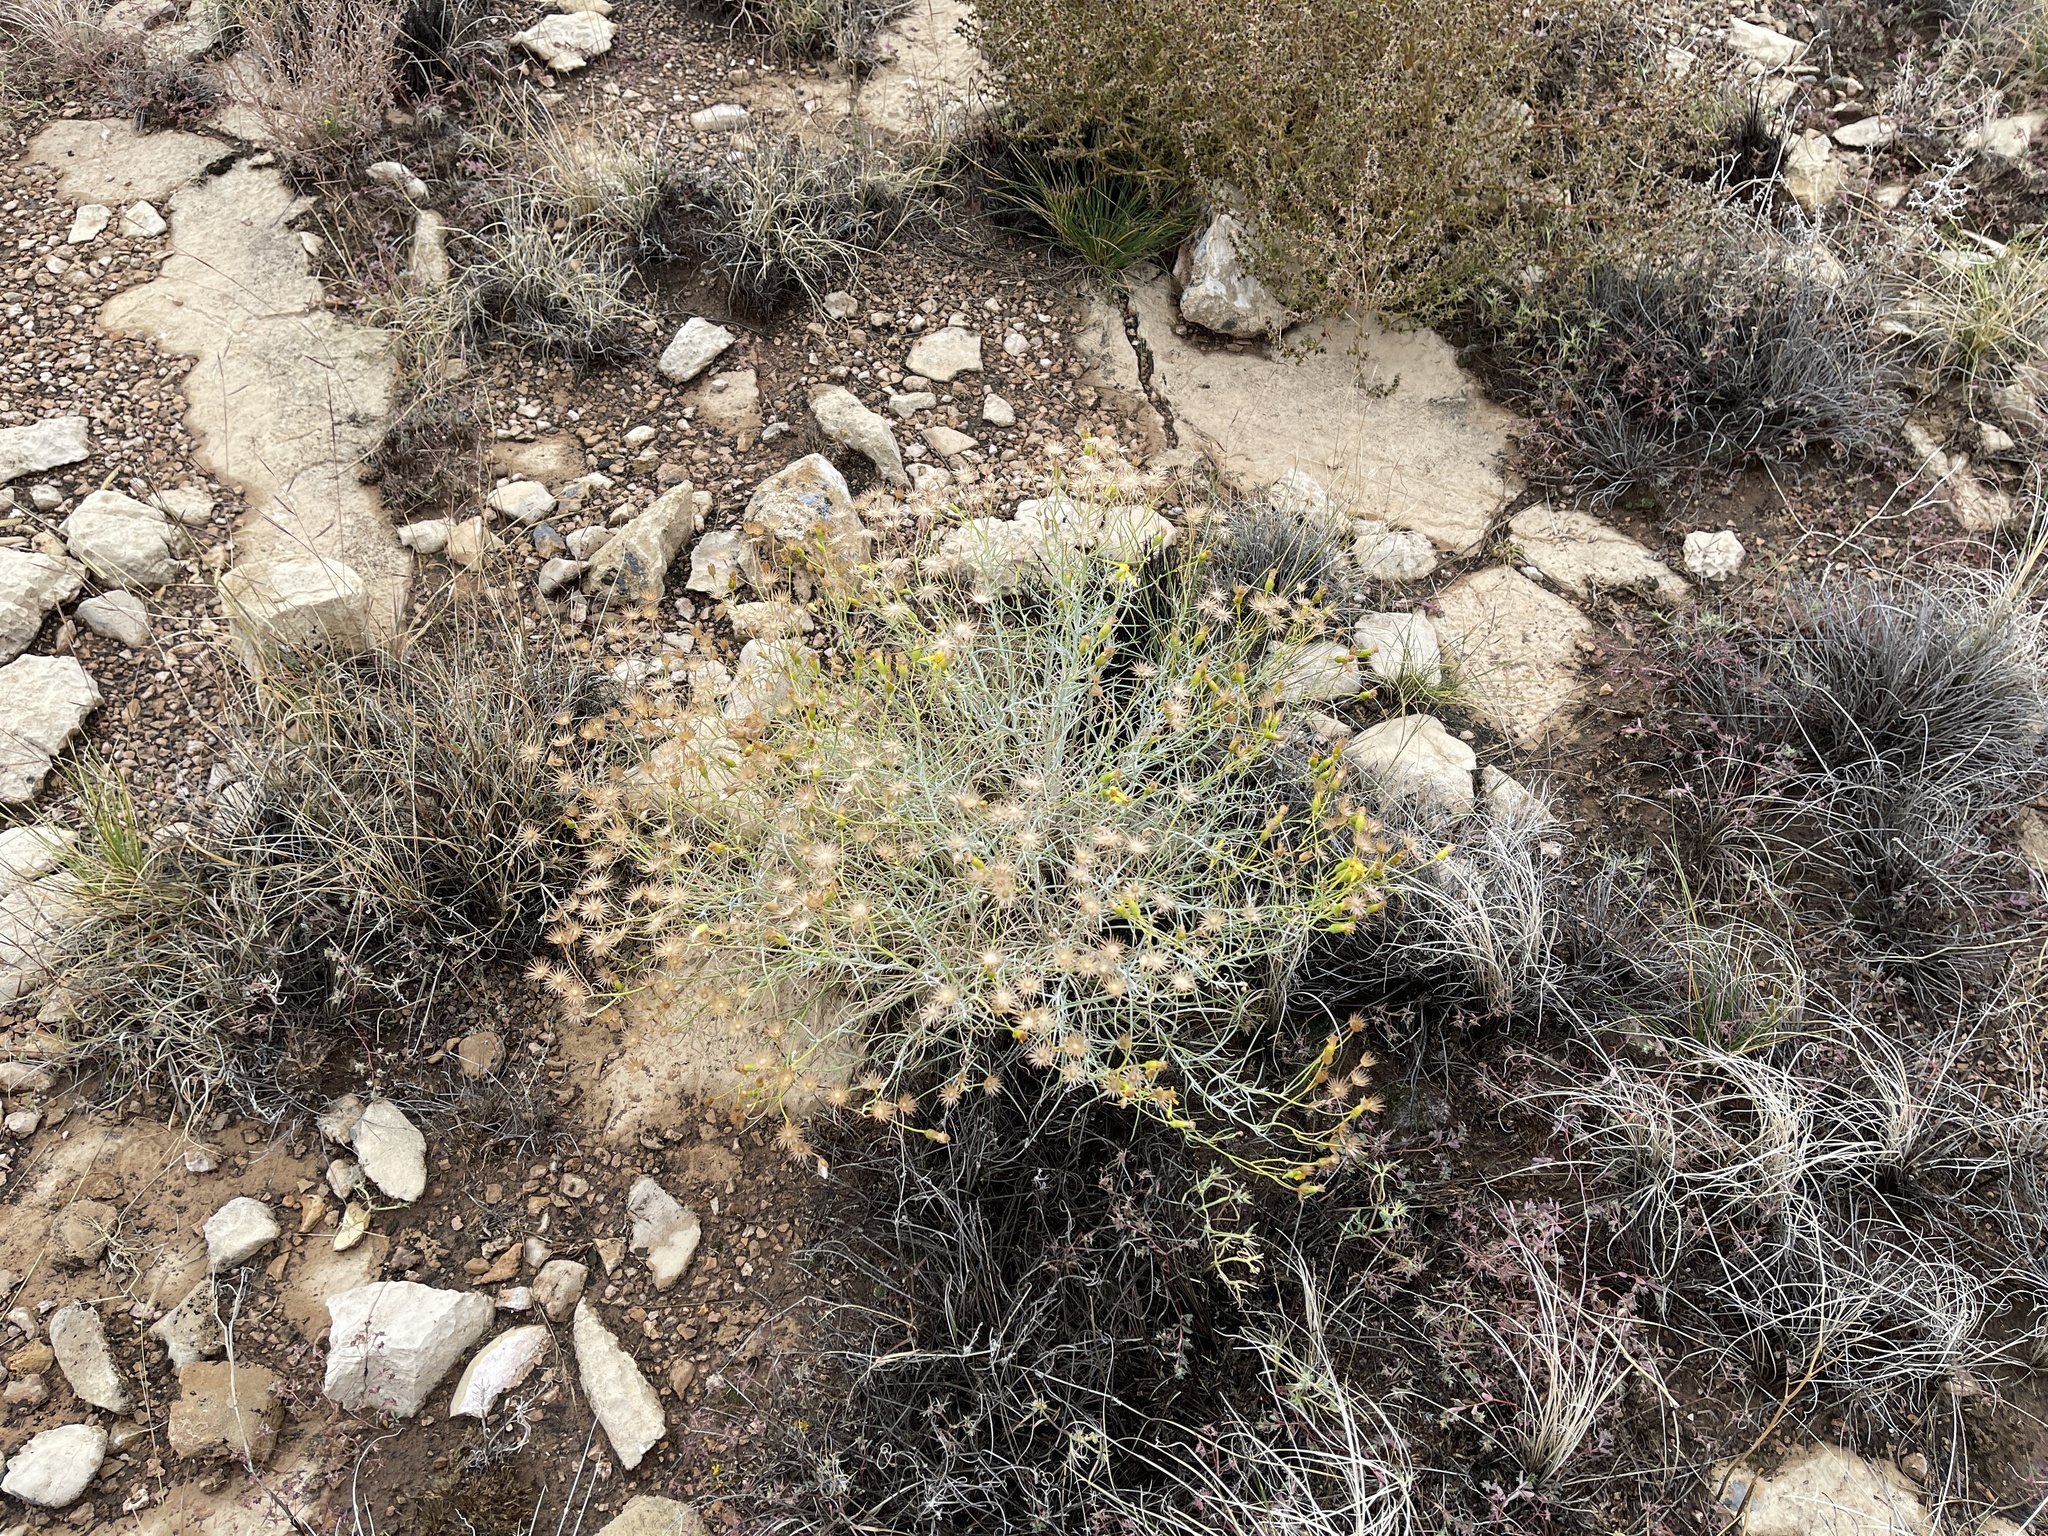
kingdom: Plantae
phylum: Tracheophyta
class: Magnoliopsida
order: Asterales
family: Asteraceae
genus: Senecio
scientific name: Senecio flaccidus
